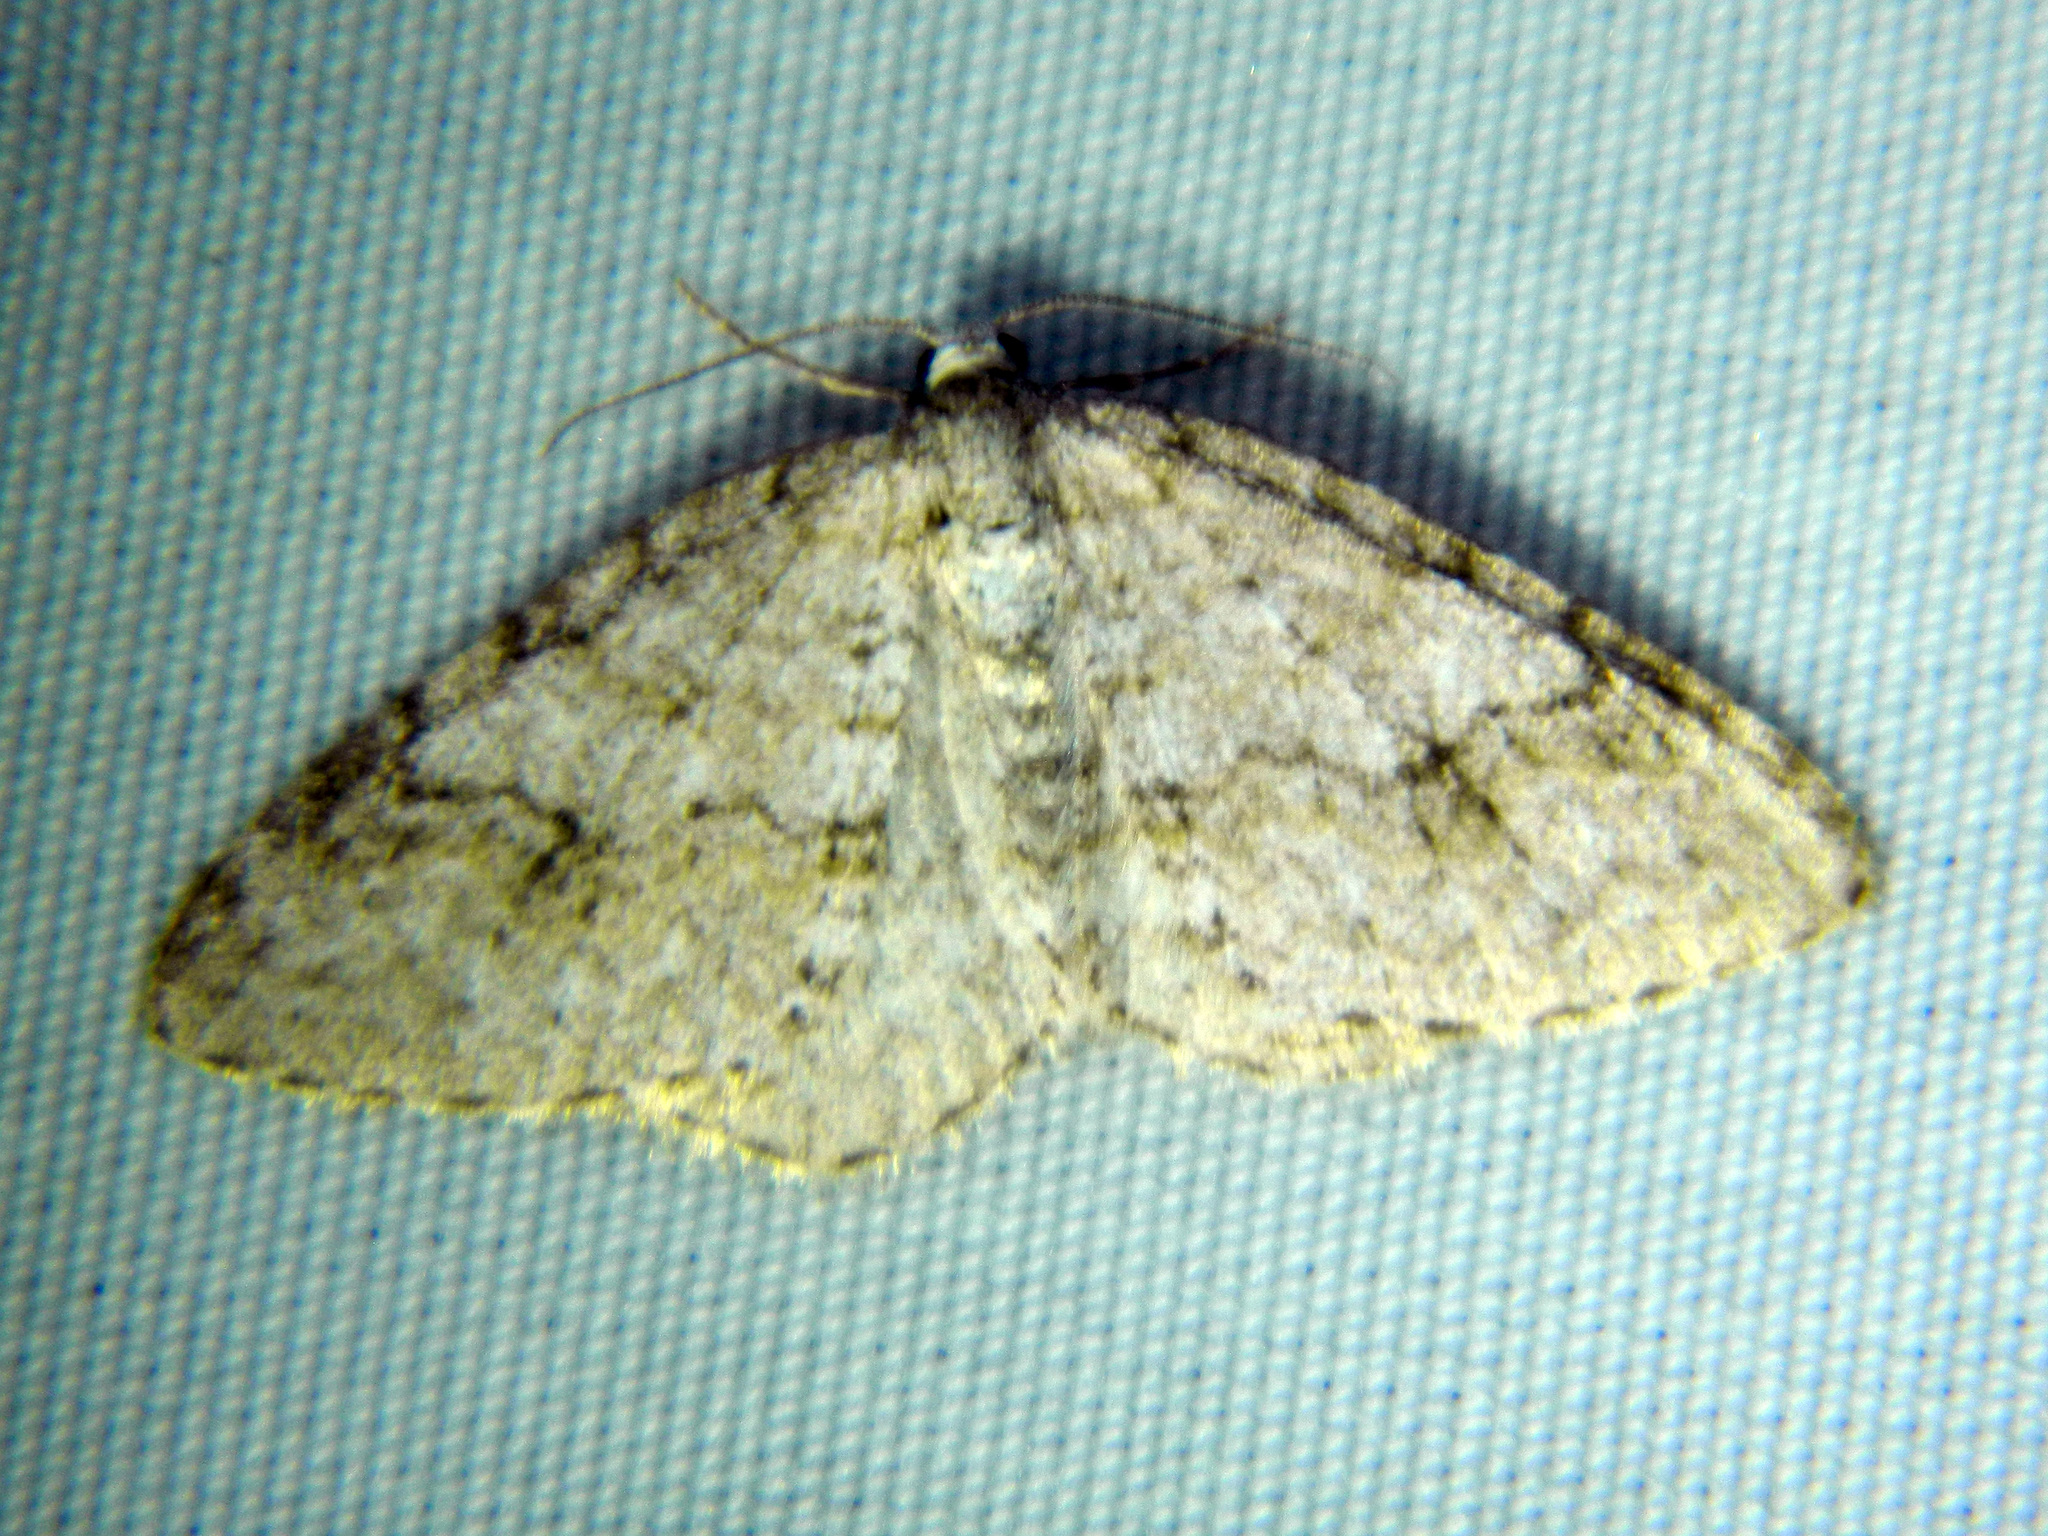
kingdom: Animalia
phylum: Arthropoda
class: Insecta
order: Lepidoptera
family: Geometridae
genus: Venusia
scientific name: Venusia comptaria
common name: Brown-shaded carpet
